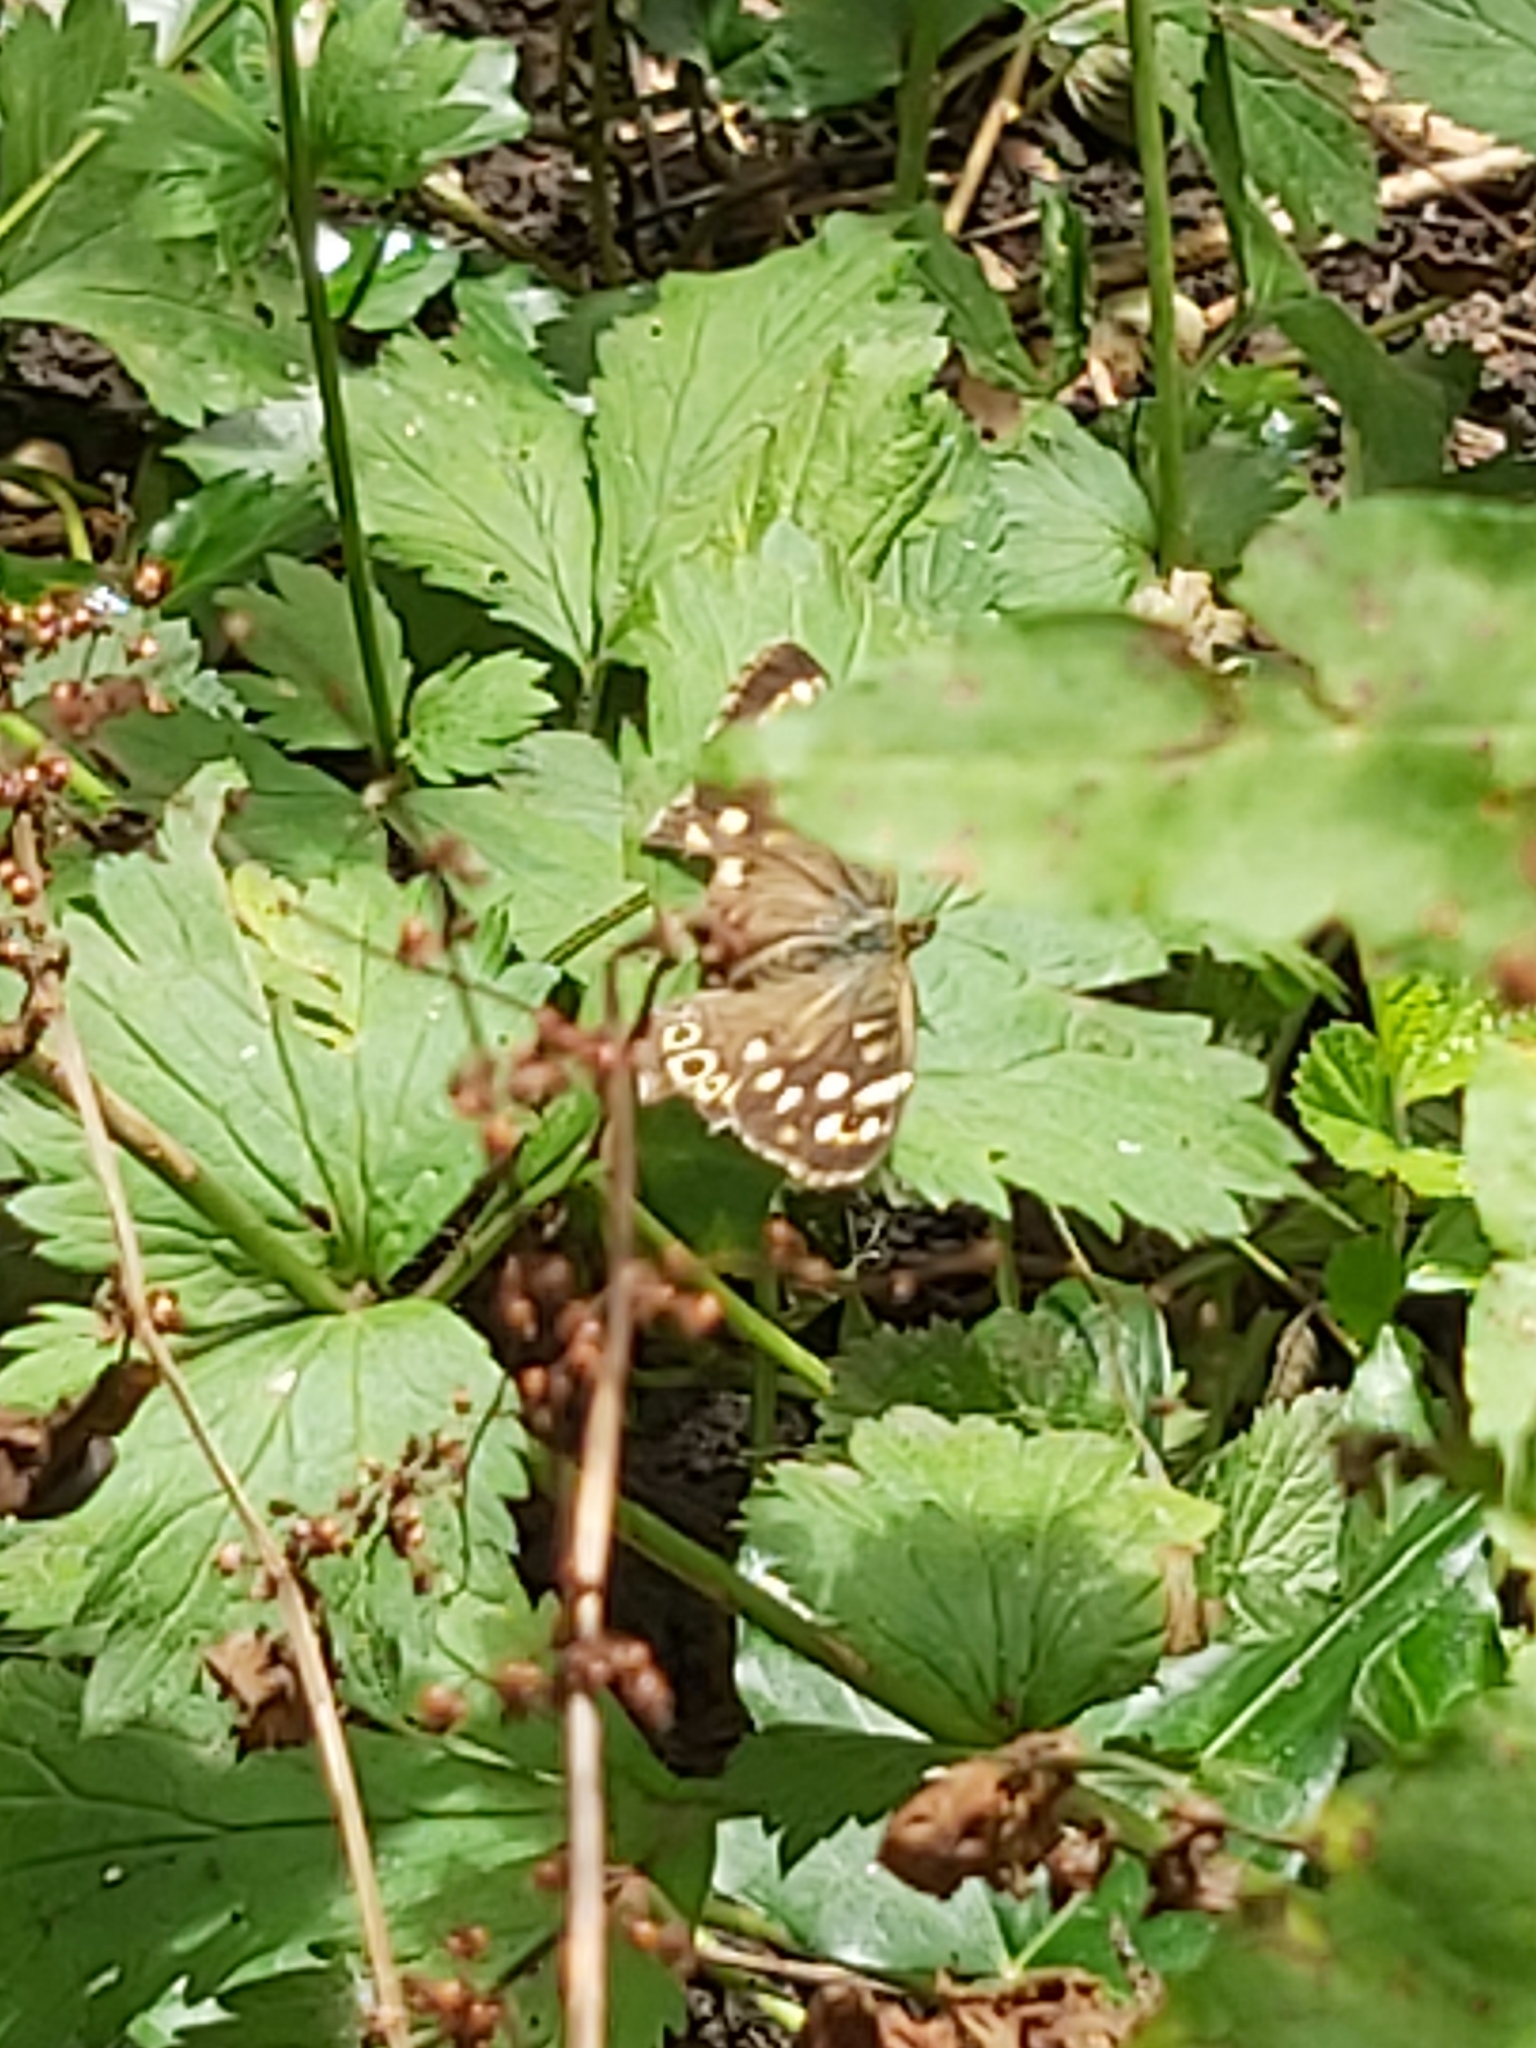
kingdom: Animalia
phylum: Arthropoda
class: Insecta
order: Lepidoptera
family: Nymphalidae
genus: Pararge
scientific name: Pararge aegeria
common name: Speckled wood
